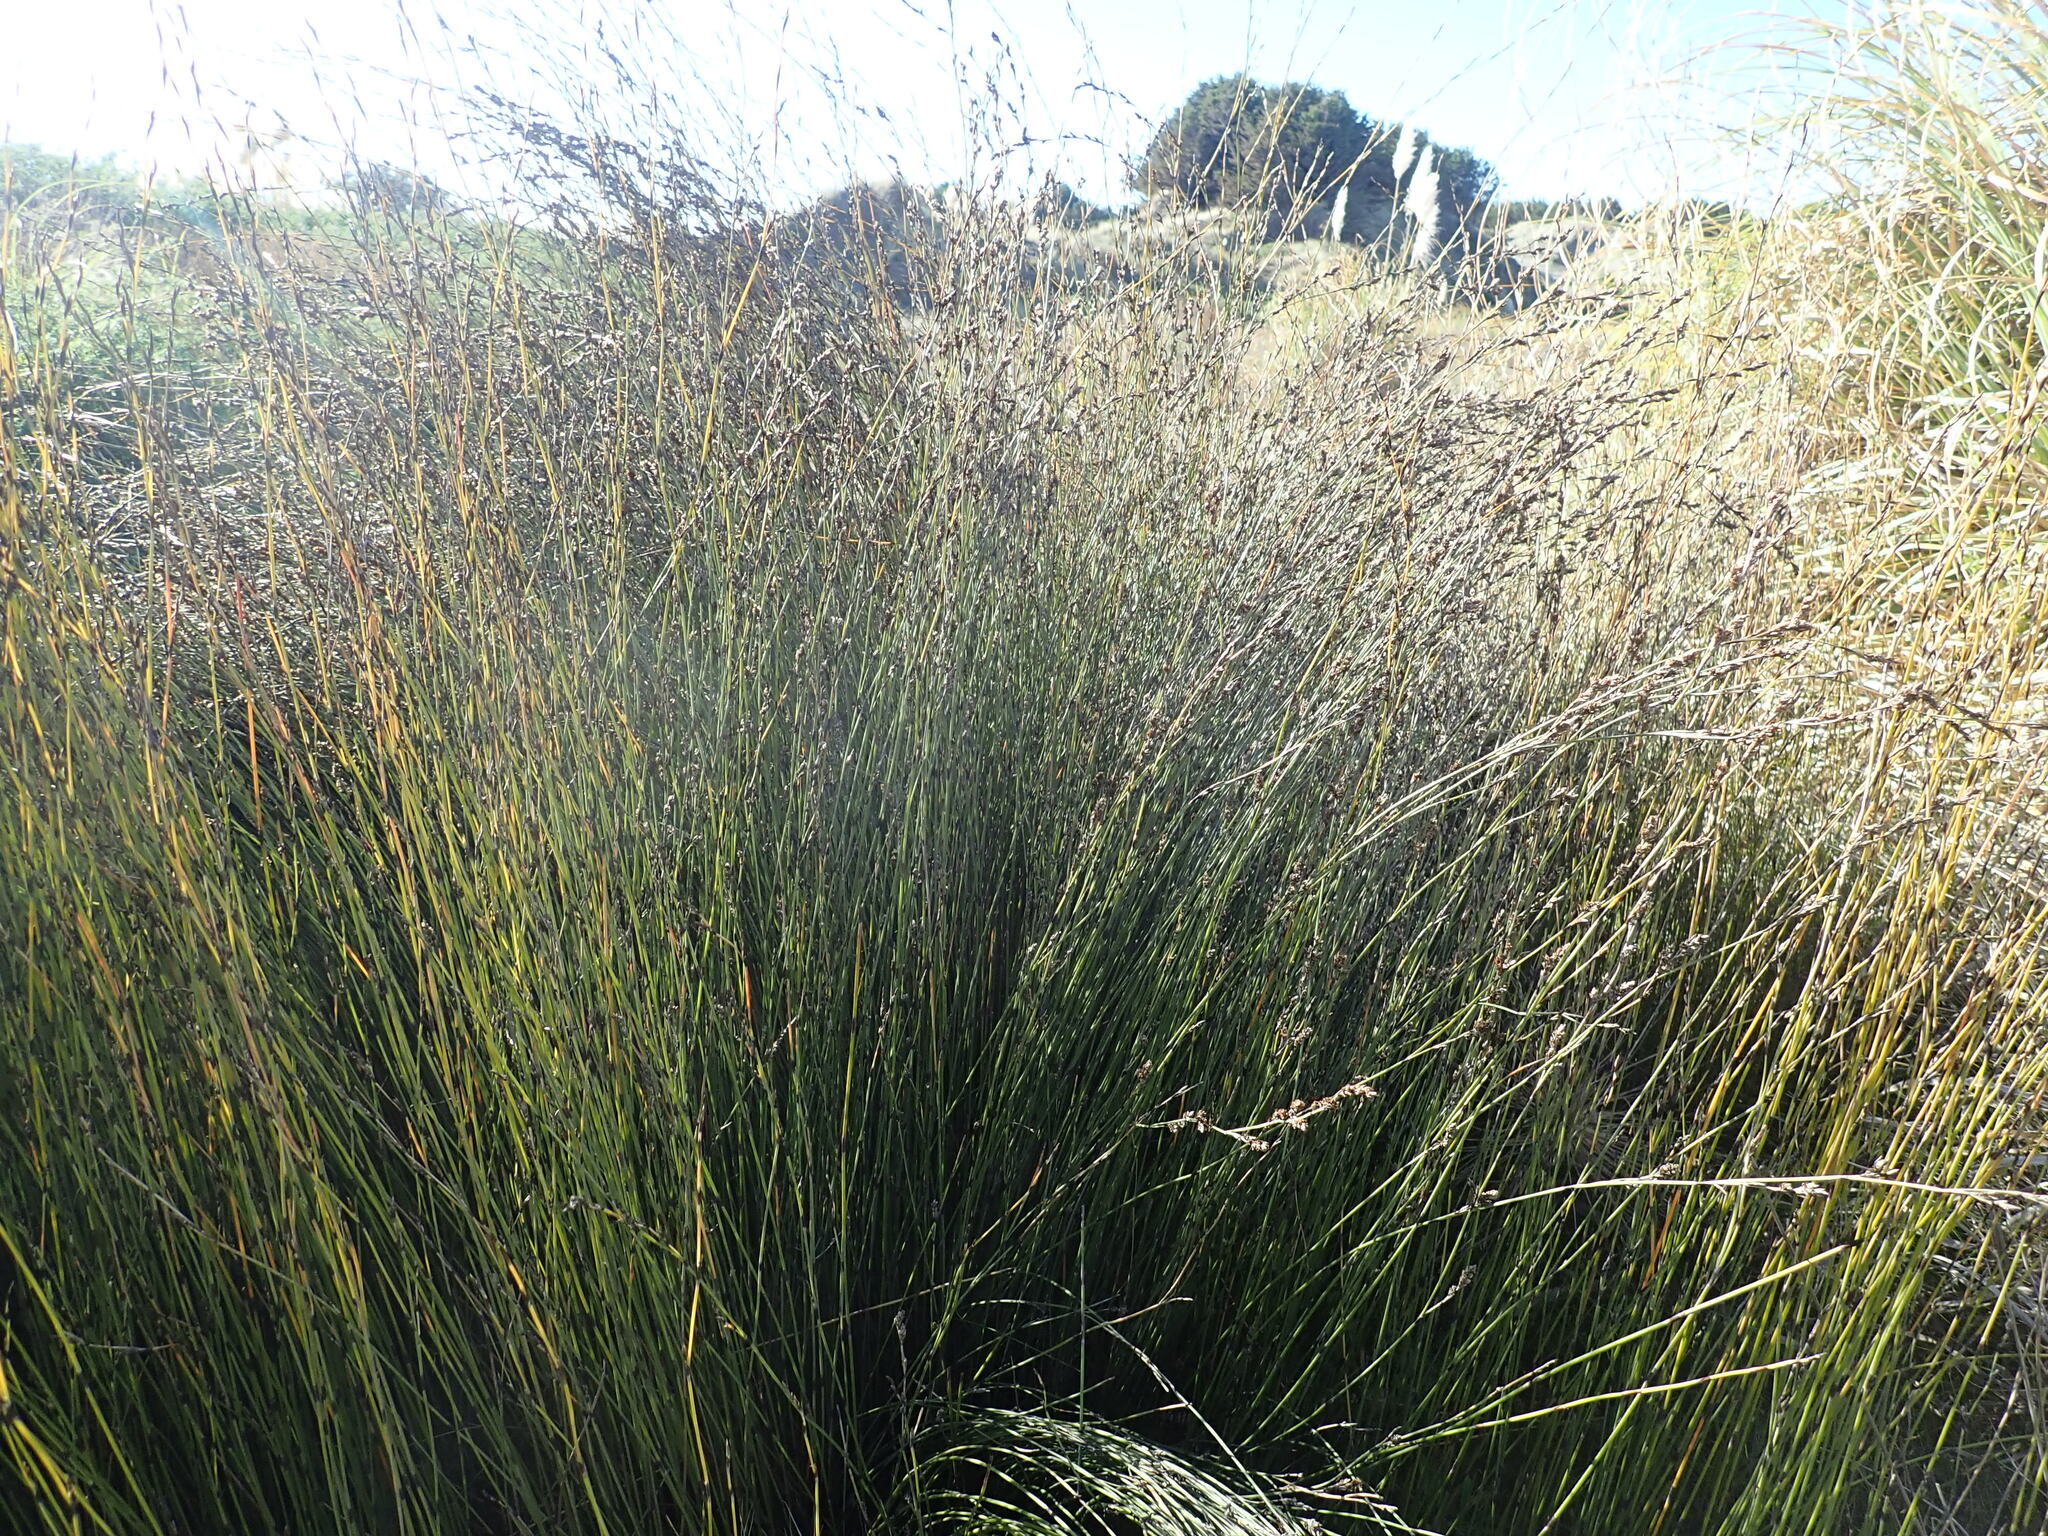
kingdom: Plantae
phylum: Tracheophyta
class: Liliopsida
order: Poales
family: Restionaceae
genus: Apodasmia
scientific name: Apodasmia similis
